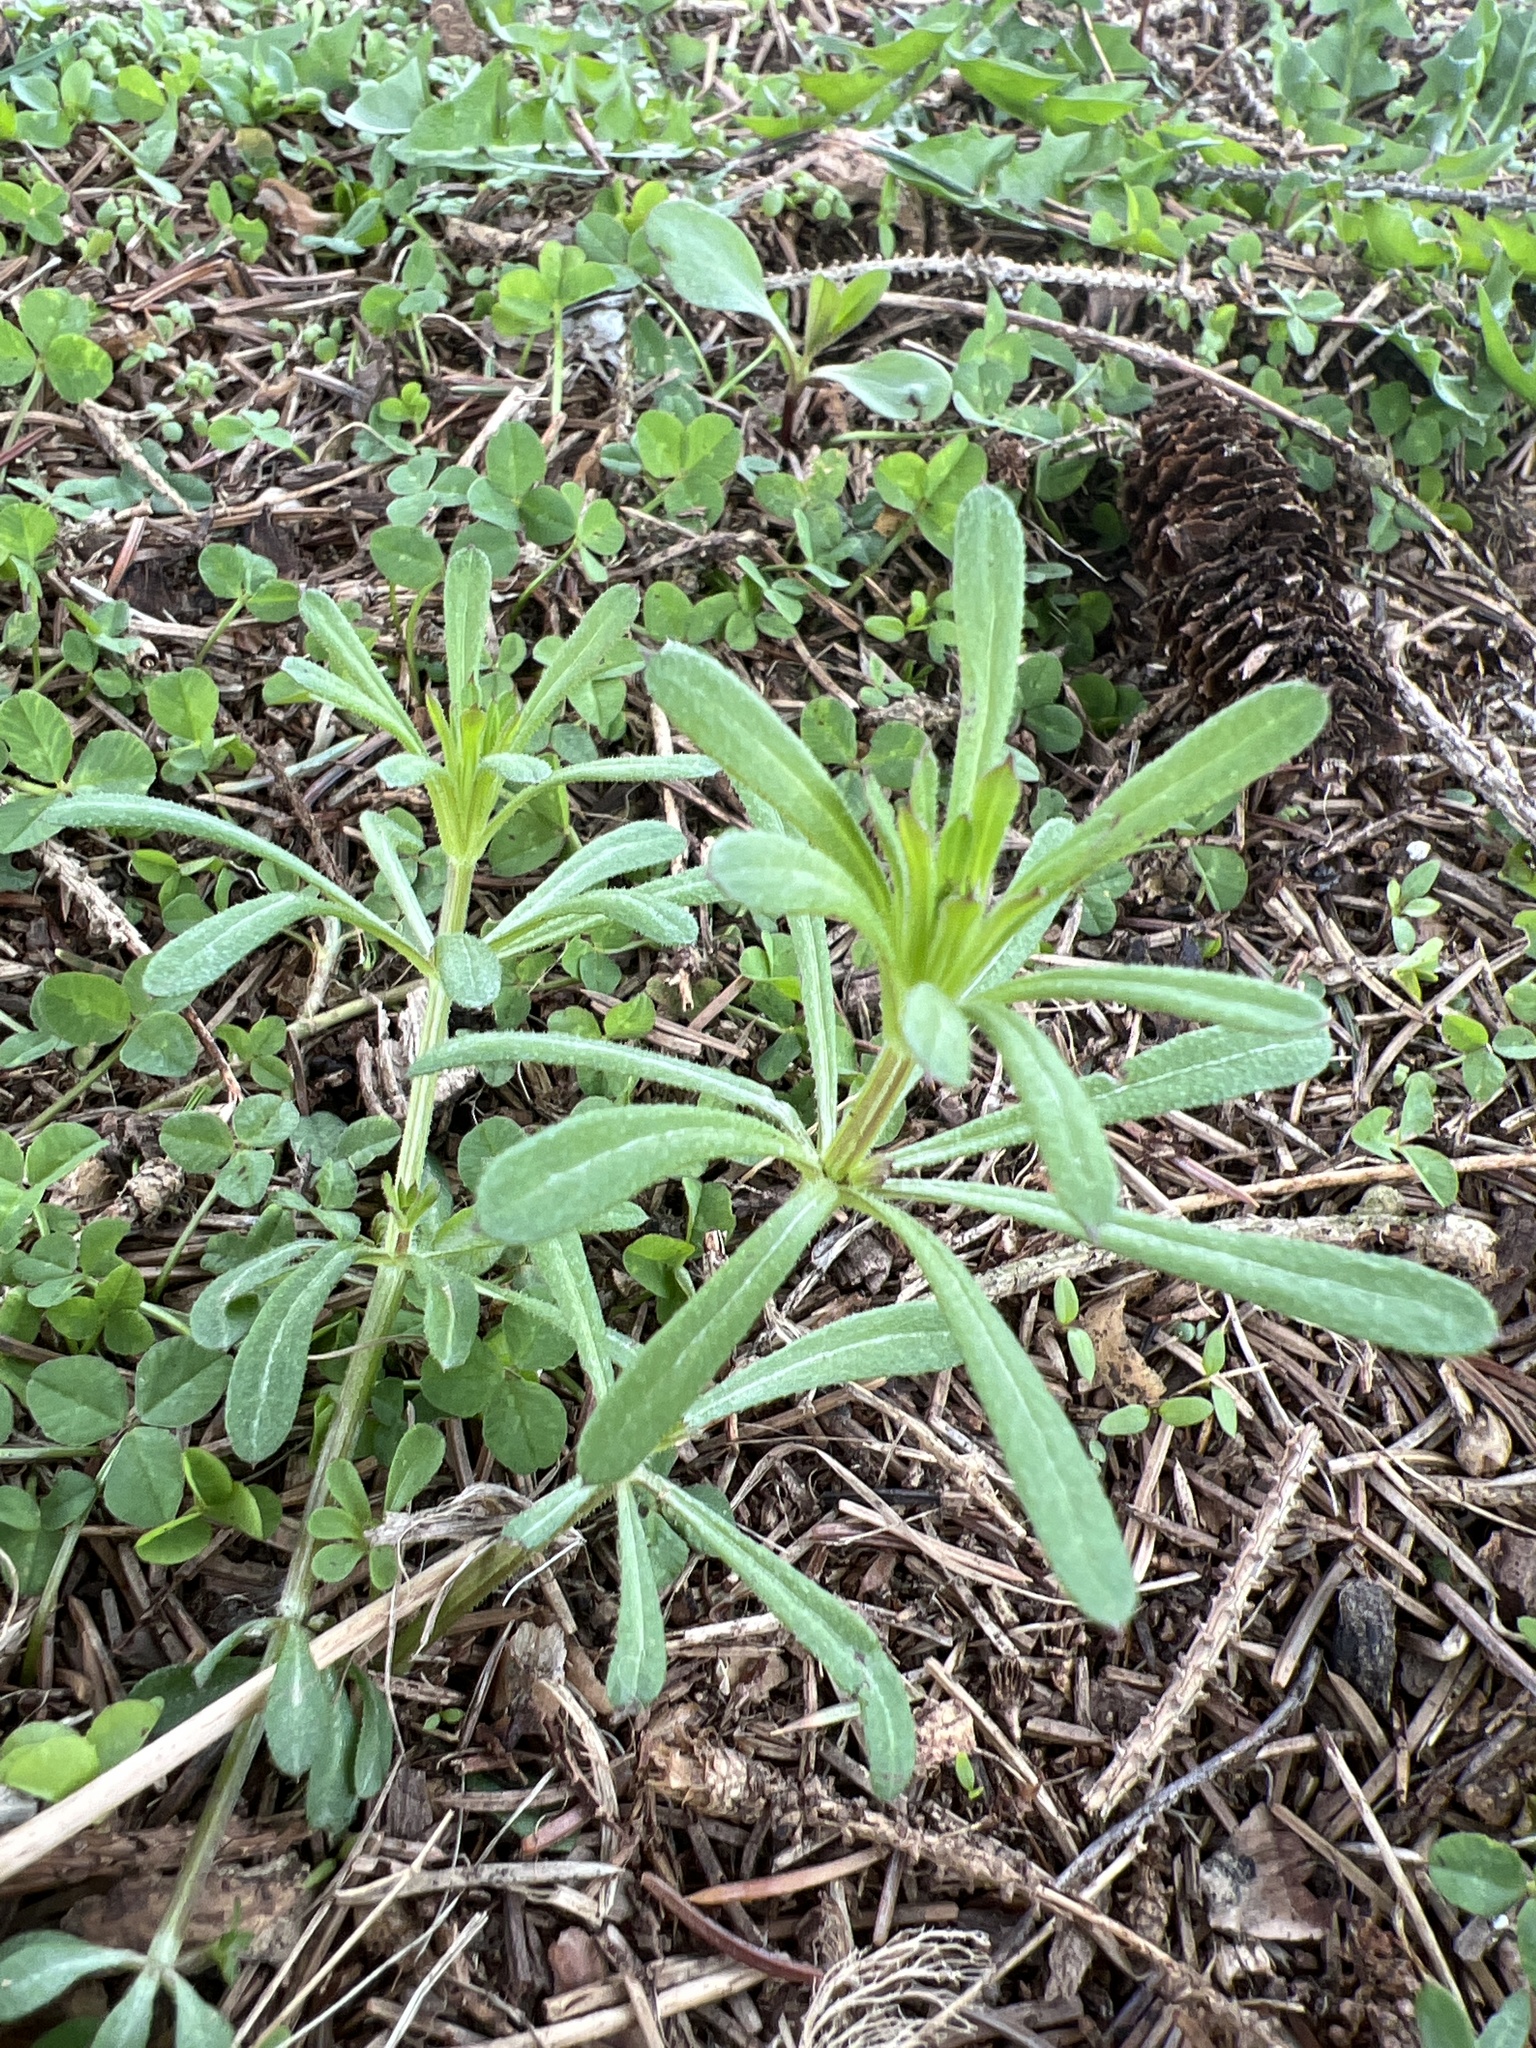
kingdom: Plantae
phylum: Tracheophyta
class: Magnoliopsida
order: Gentianales
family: Rubiaceae
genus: Galium
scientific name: Galium aparine
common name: Cleavers
